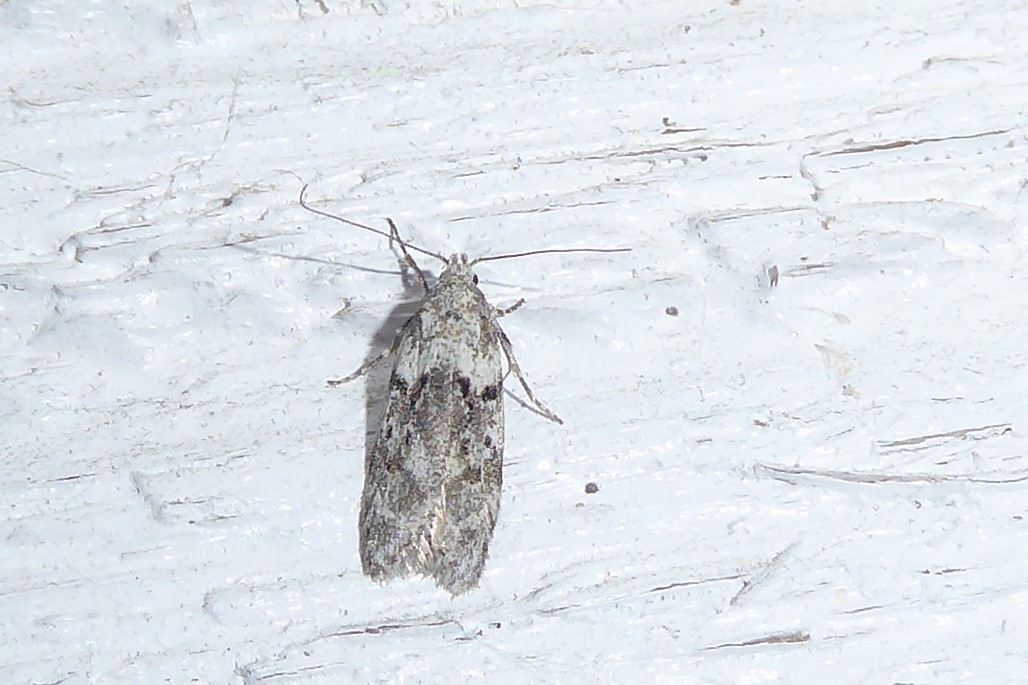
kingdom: Animalia
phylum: Arthropoda
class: Insecta
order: Lepidoptera
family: Oecophoridae
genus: Izatha
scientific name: Izatha convulsella
